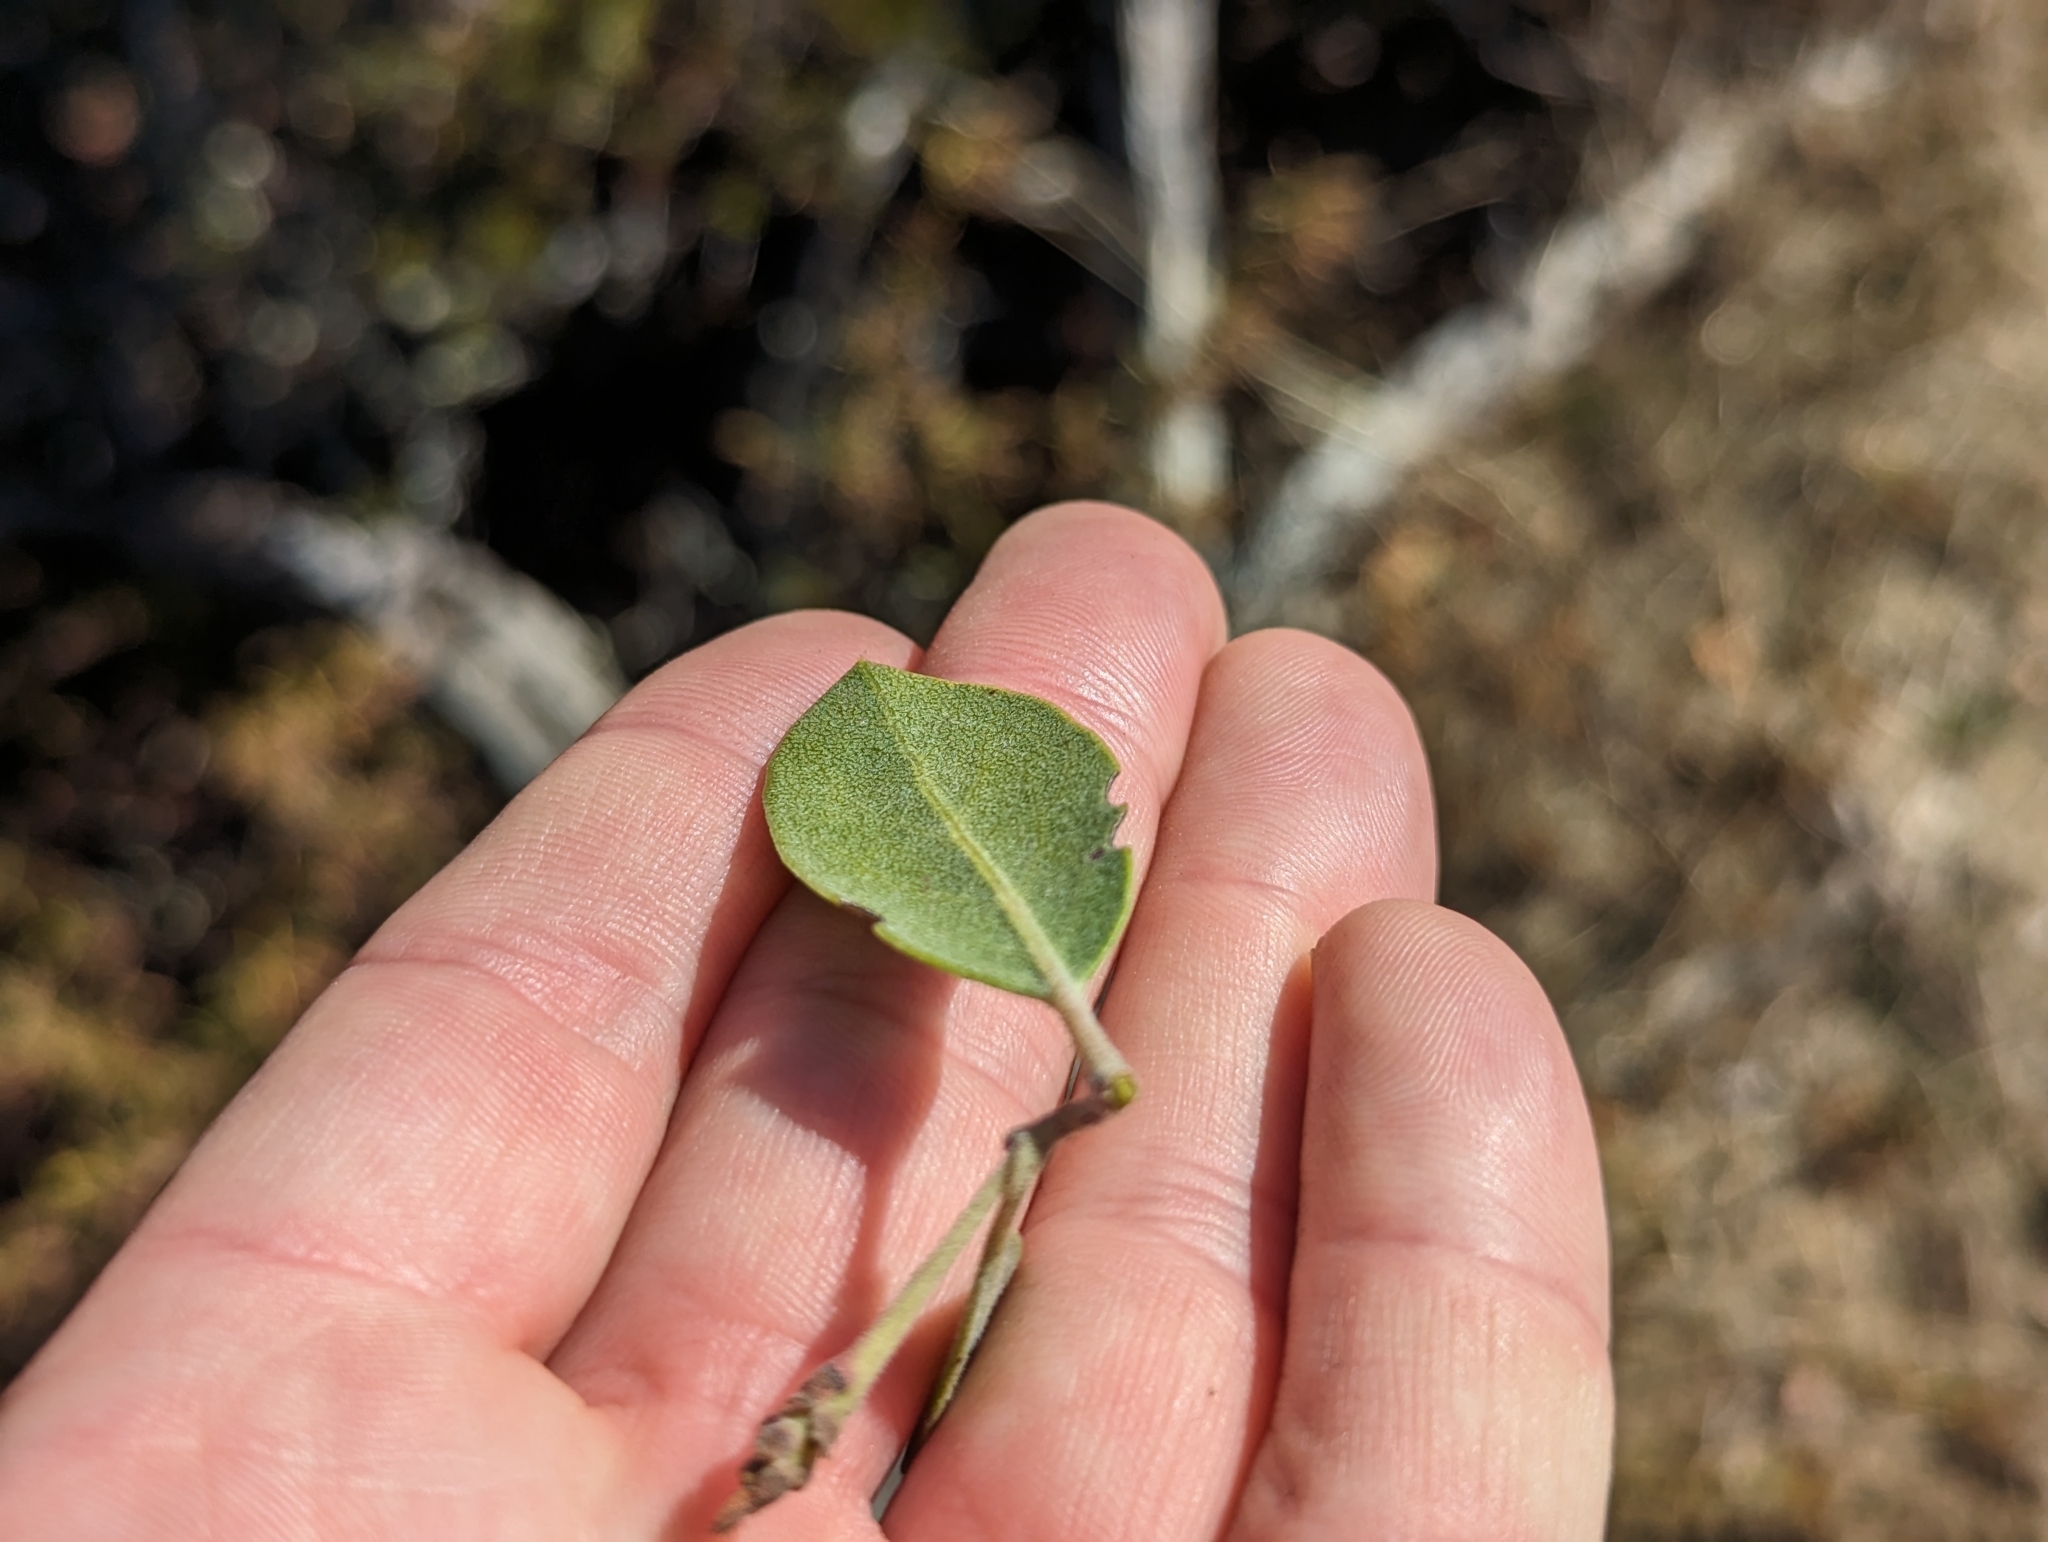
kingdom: Plantae
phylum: Tracheophyta
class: Magnoliopsida
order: Ericales
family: Ericaceae
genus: Arctostaphylos
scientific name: Arctostaphylos crustacea
